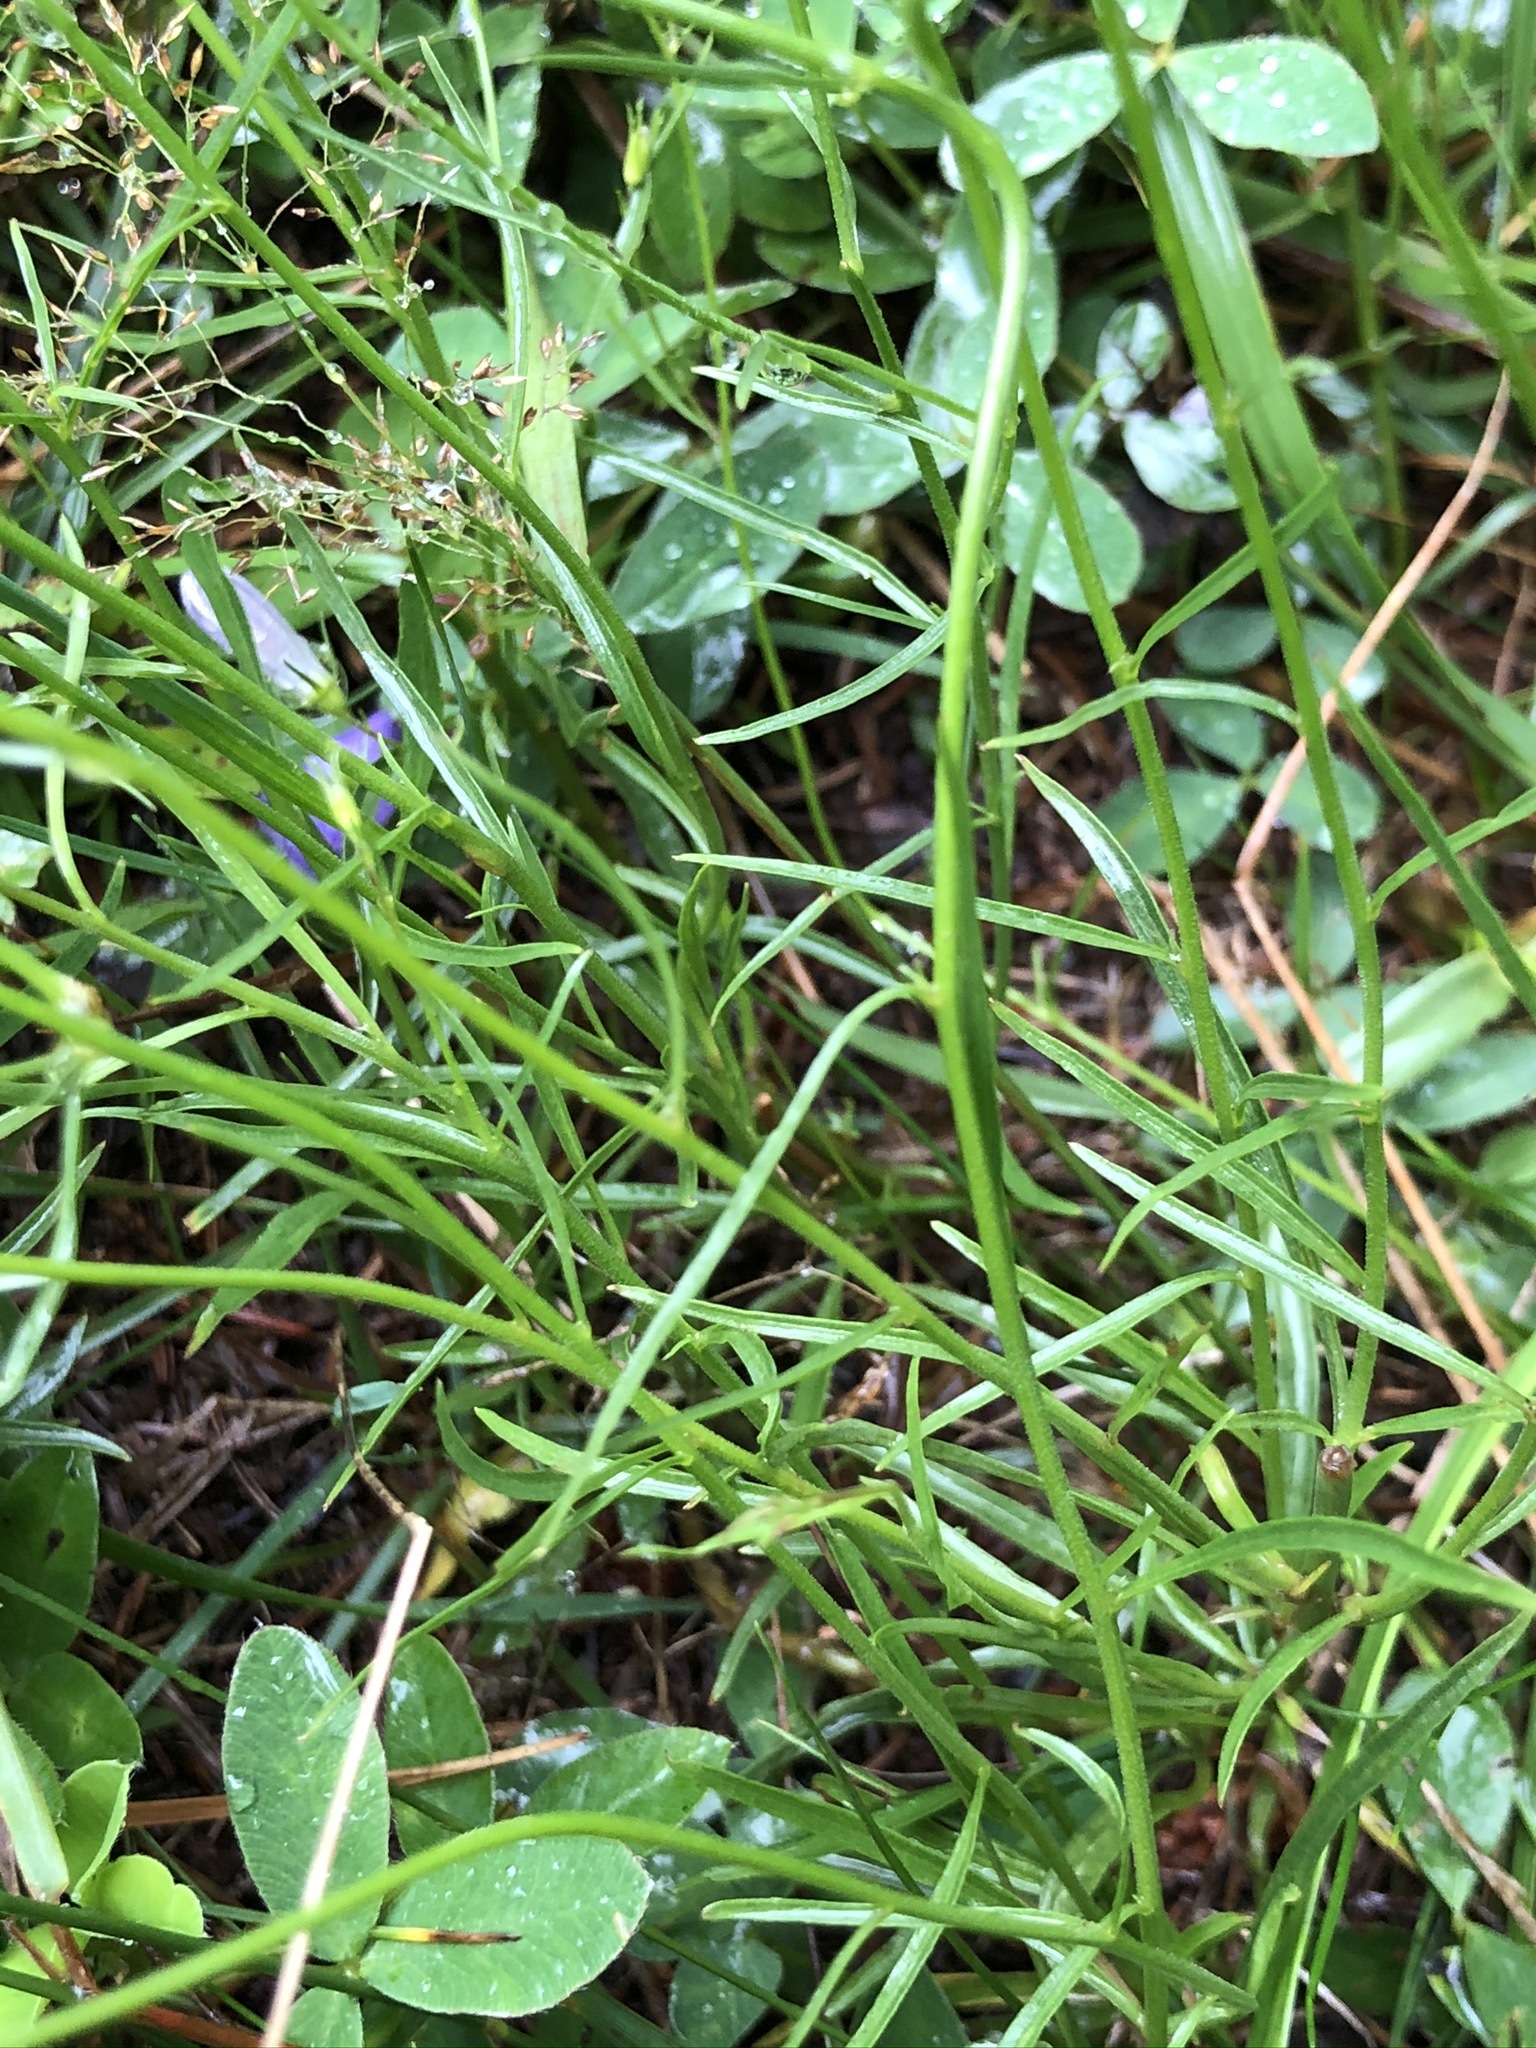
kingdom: Plantae
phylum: Tracheophyta
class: Magnoliopsida
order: Asterales
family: Campanulaceae
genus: Campanula
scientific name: Campanula rotundifolia
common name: Harebell
